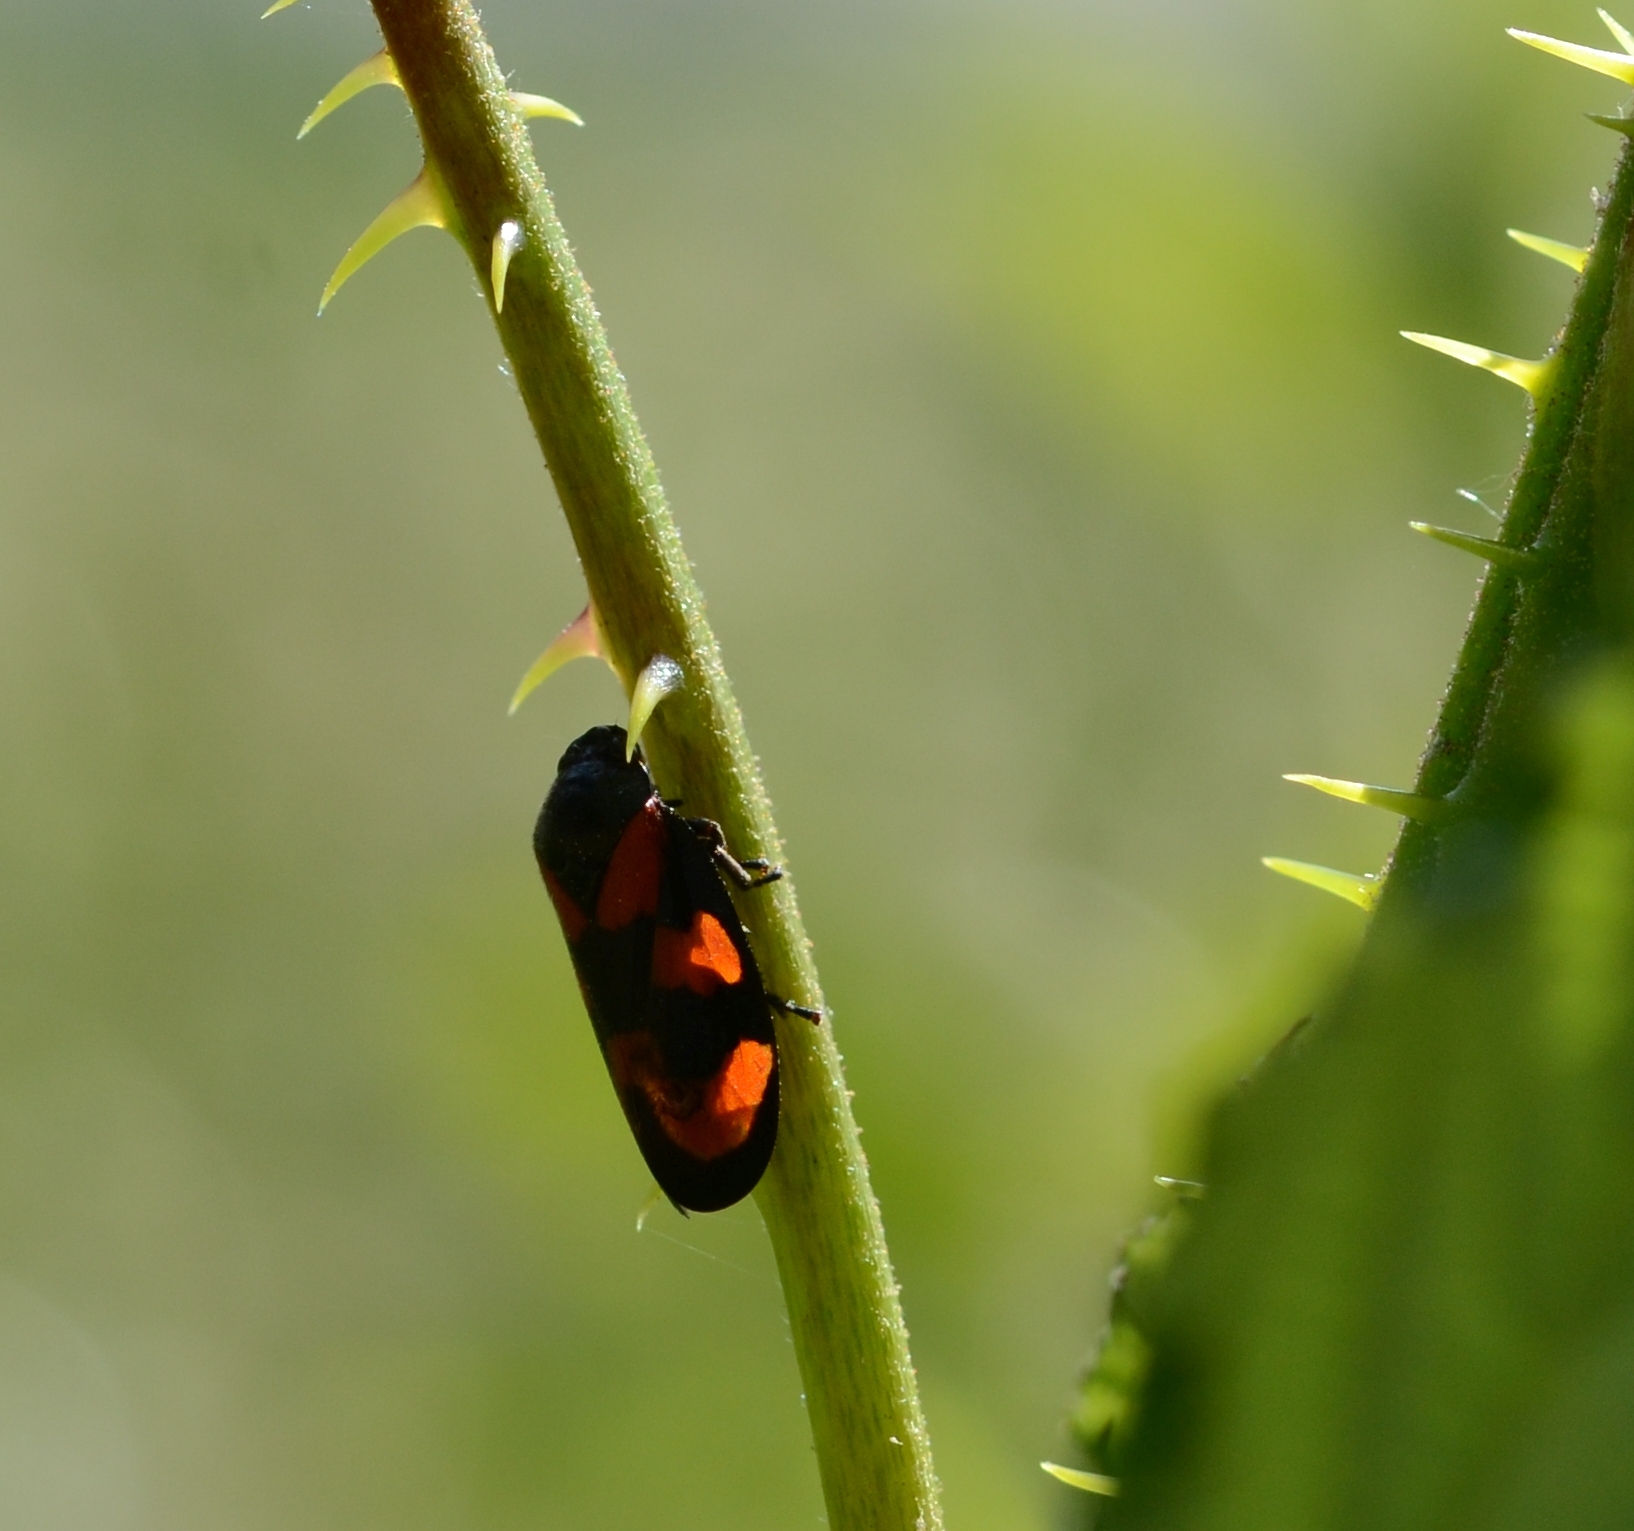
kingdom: Animalia
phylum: Arthropoda
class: Insecta
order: Hemiptera
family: Cercopidae
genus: Cercopis
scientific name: Cercopis vulnerata
